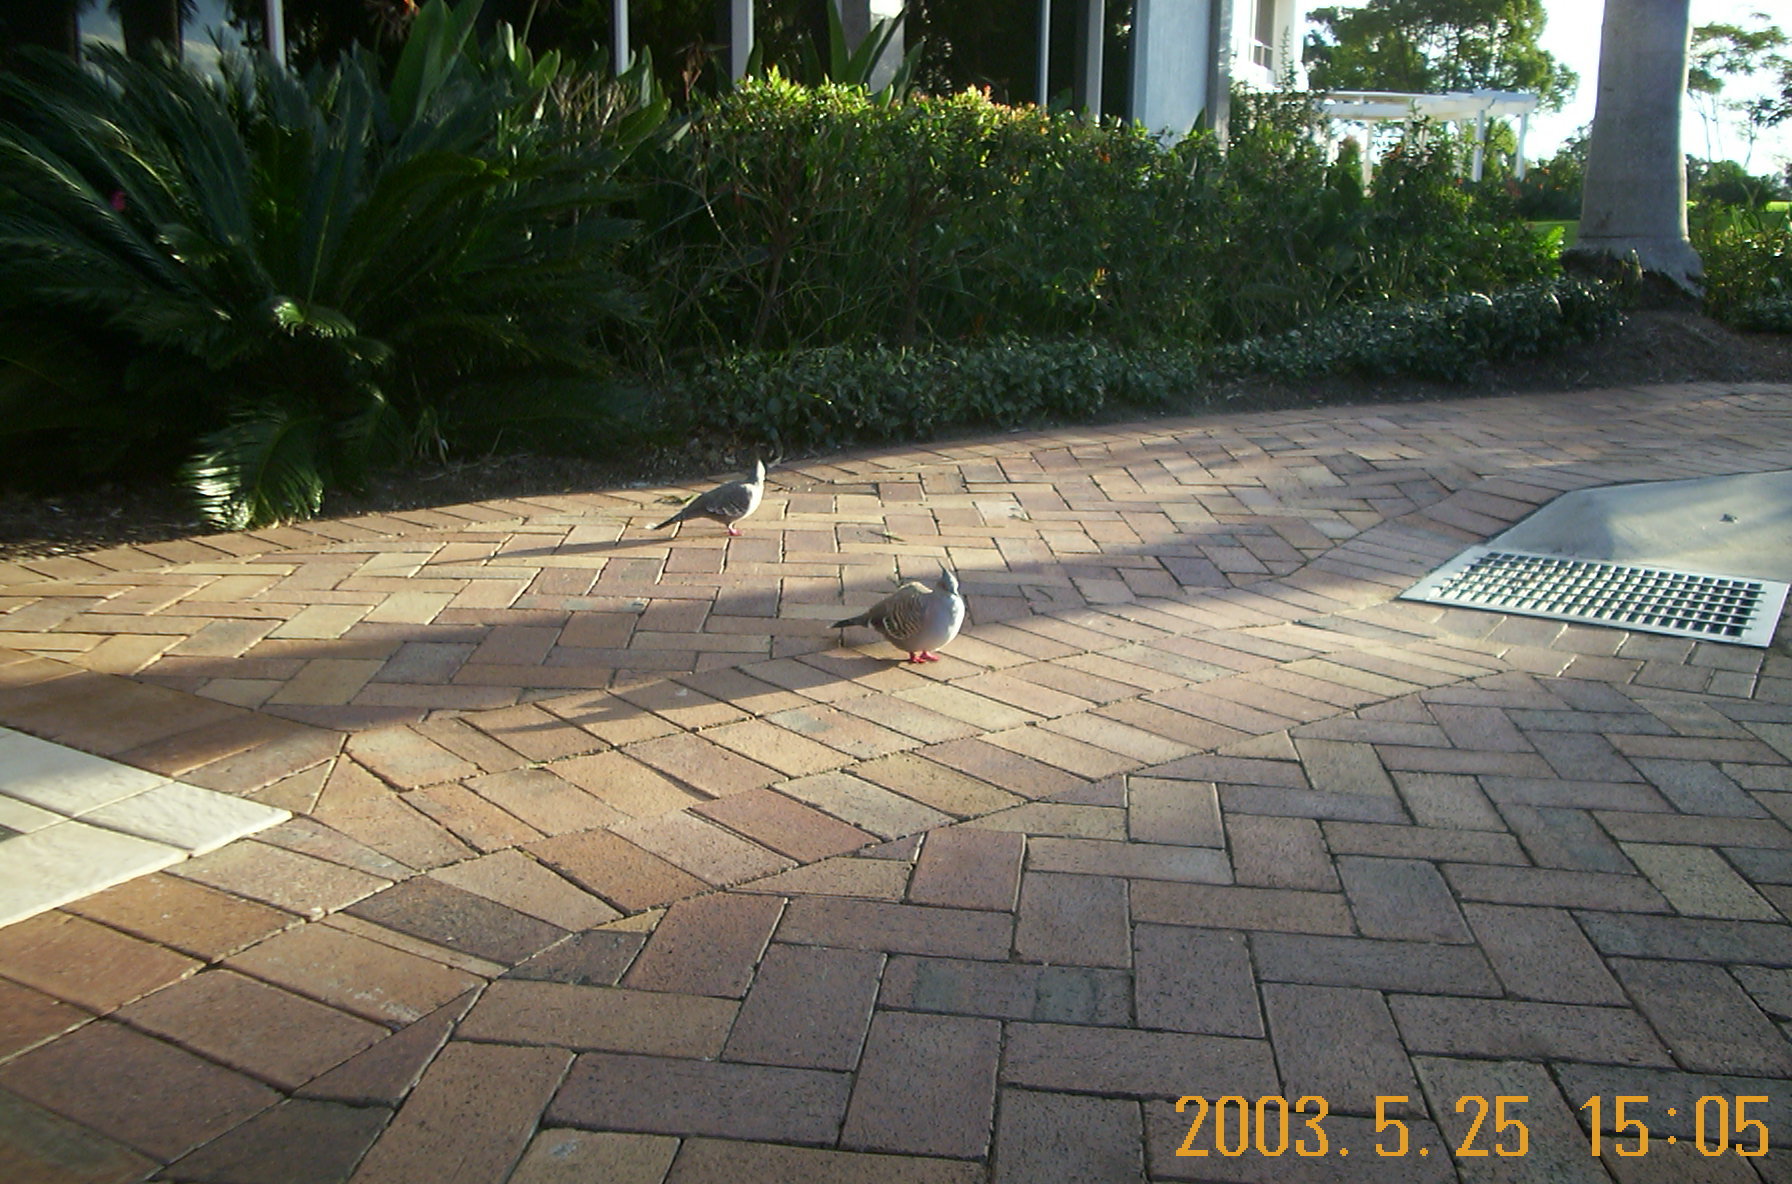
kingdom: Animalia
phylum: Chordata
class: Aves
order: Columbiformes
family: Columbidae
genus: Ocyphaps
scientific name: Ocyphaps lophotes
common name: Crested pigeon
